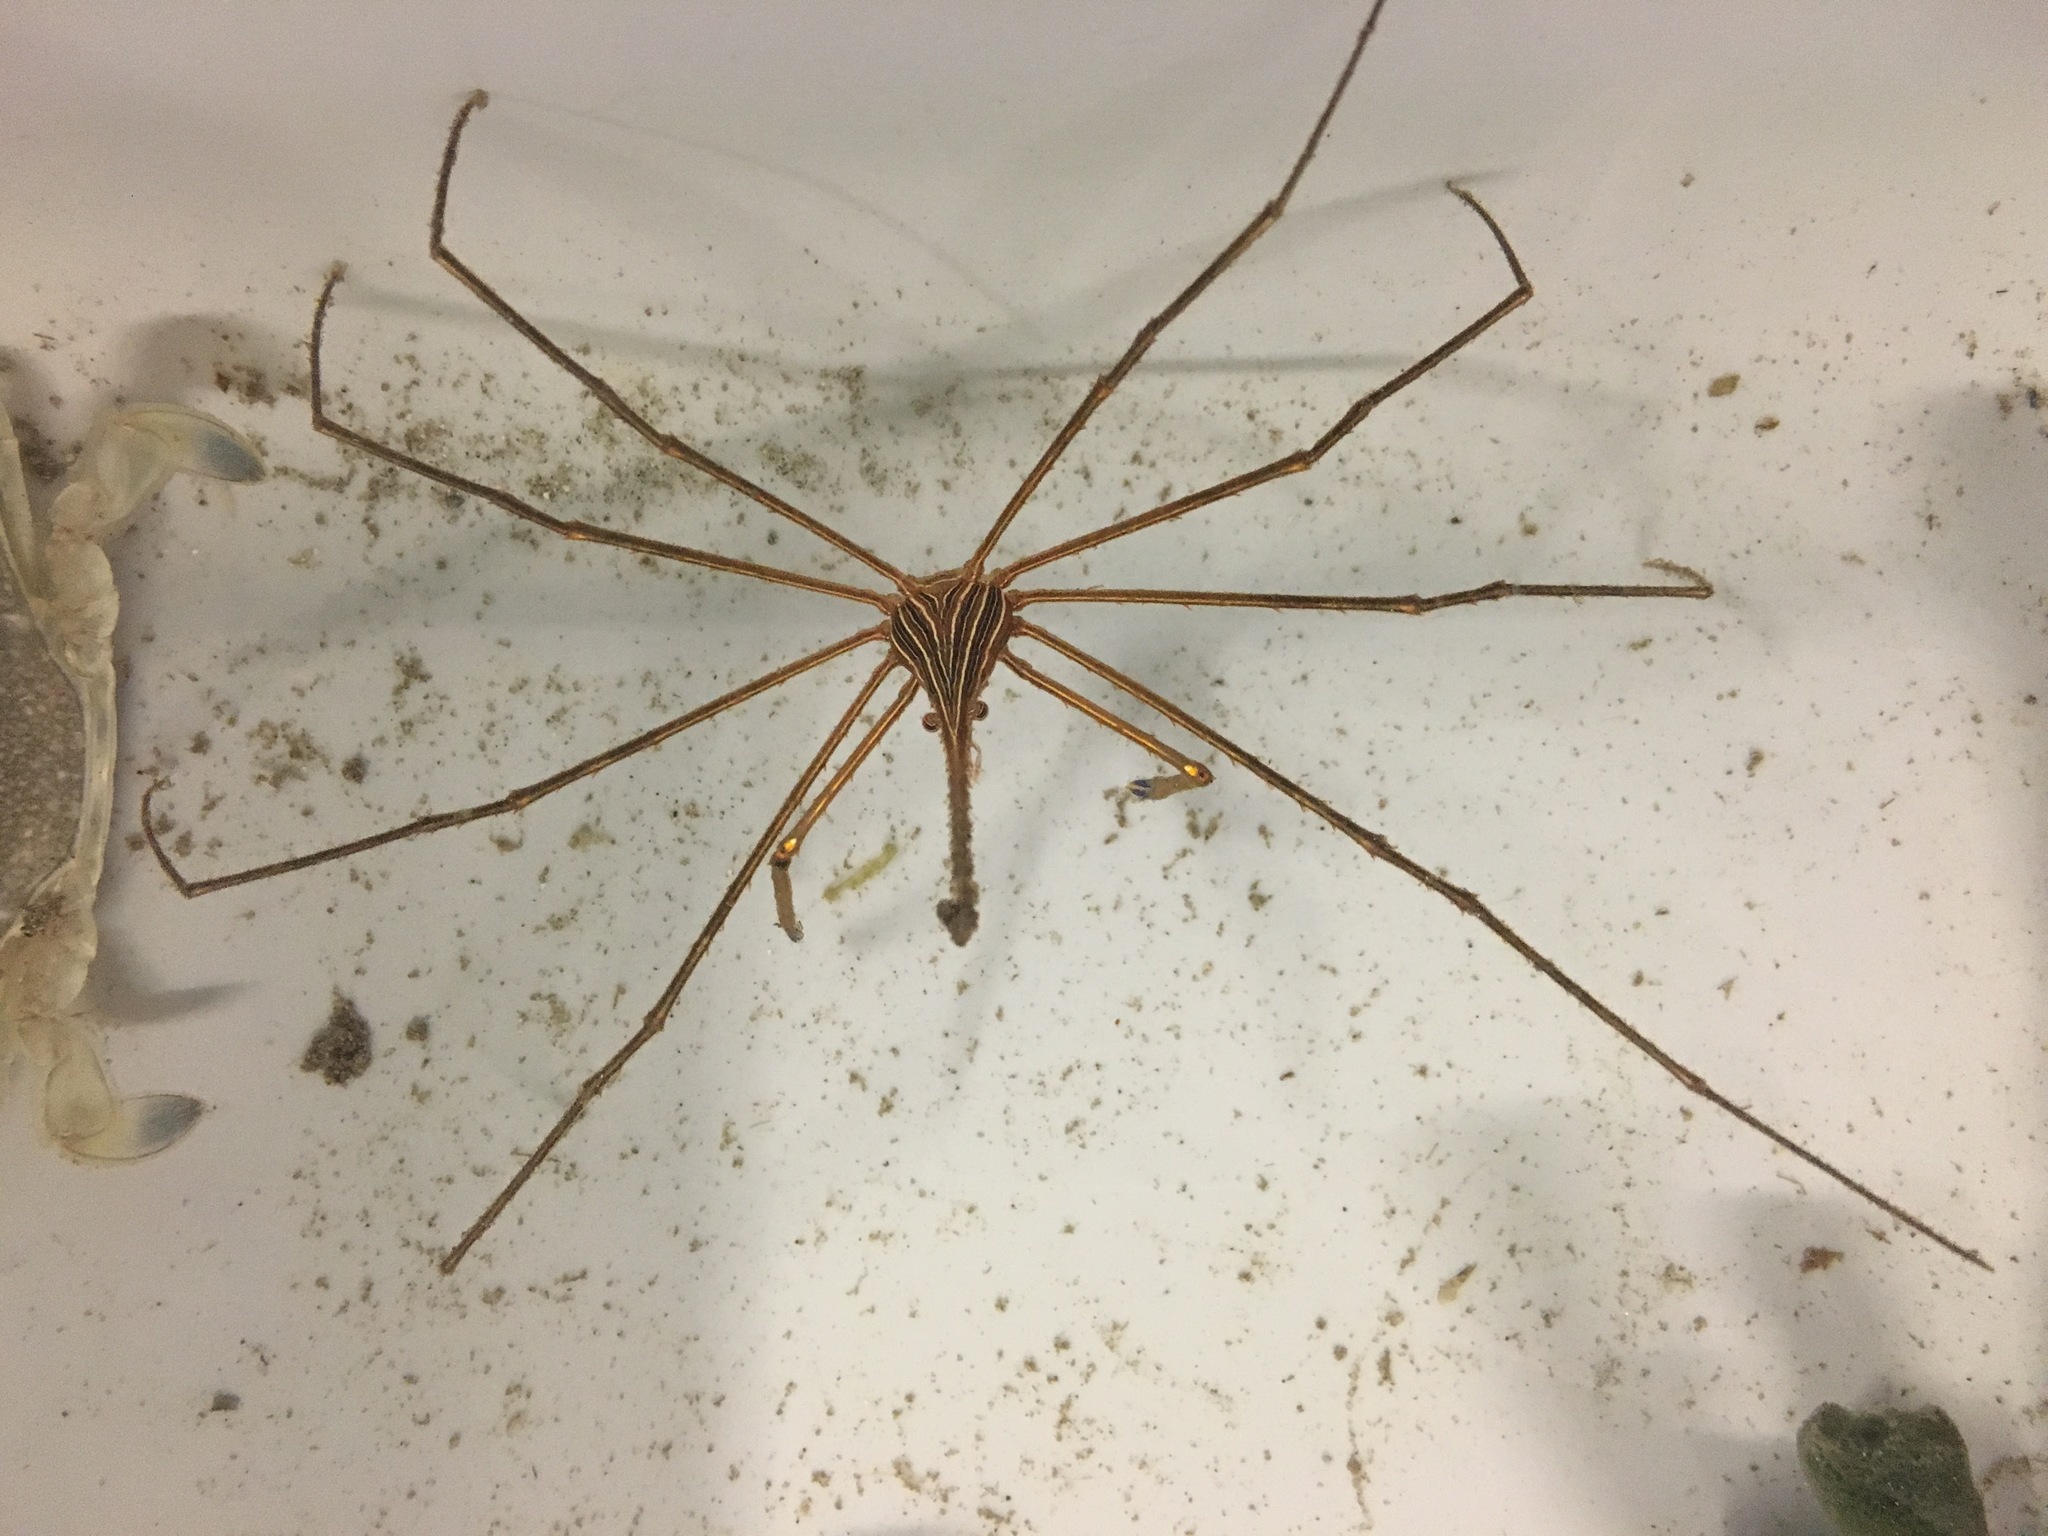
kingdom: Animalia
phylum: Arthropoda
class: Malacostraca
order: Decapoda
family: Inachoididae
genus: Stenorhynchus
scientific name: Stenorhynchus seticornis
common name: Arrow crab
